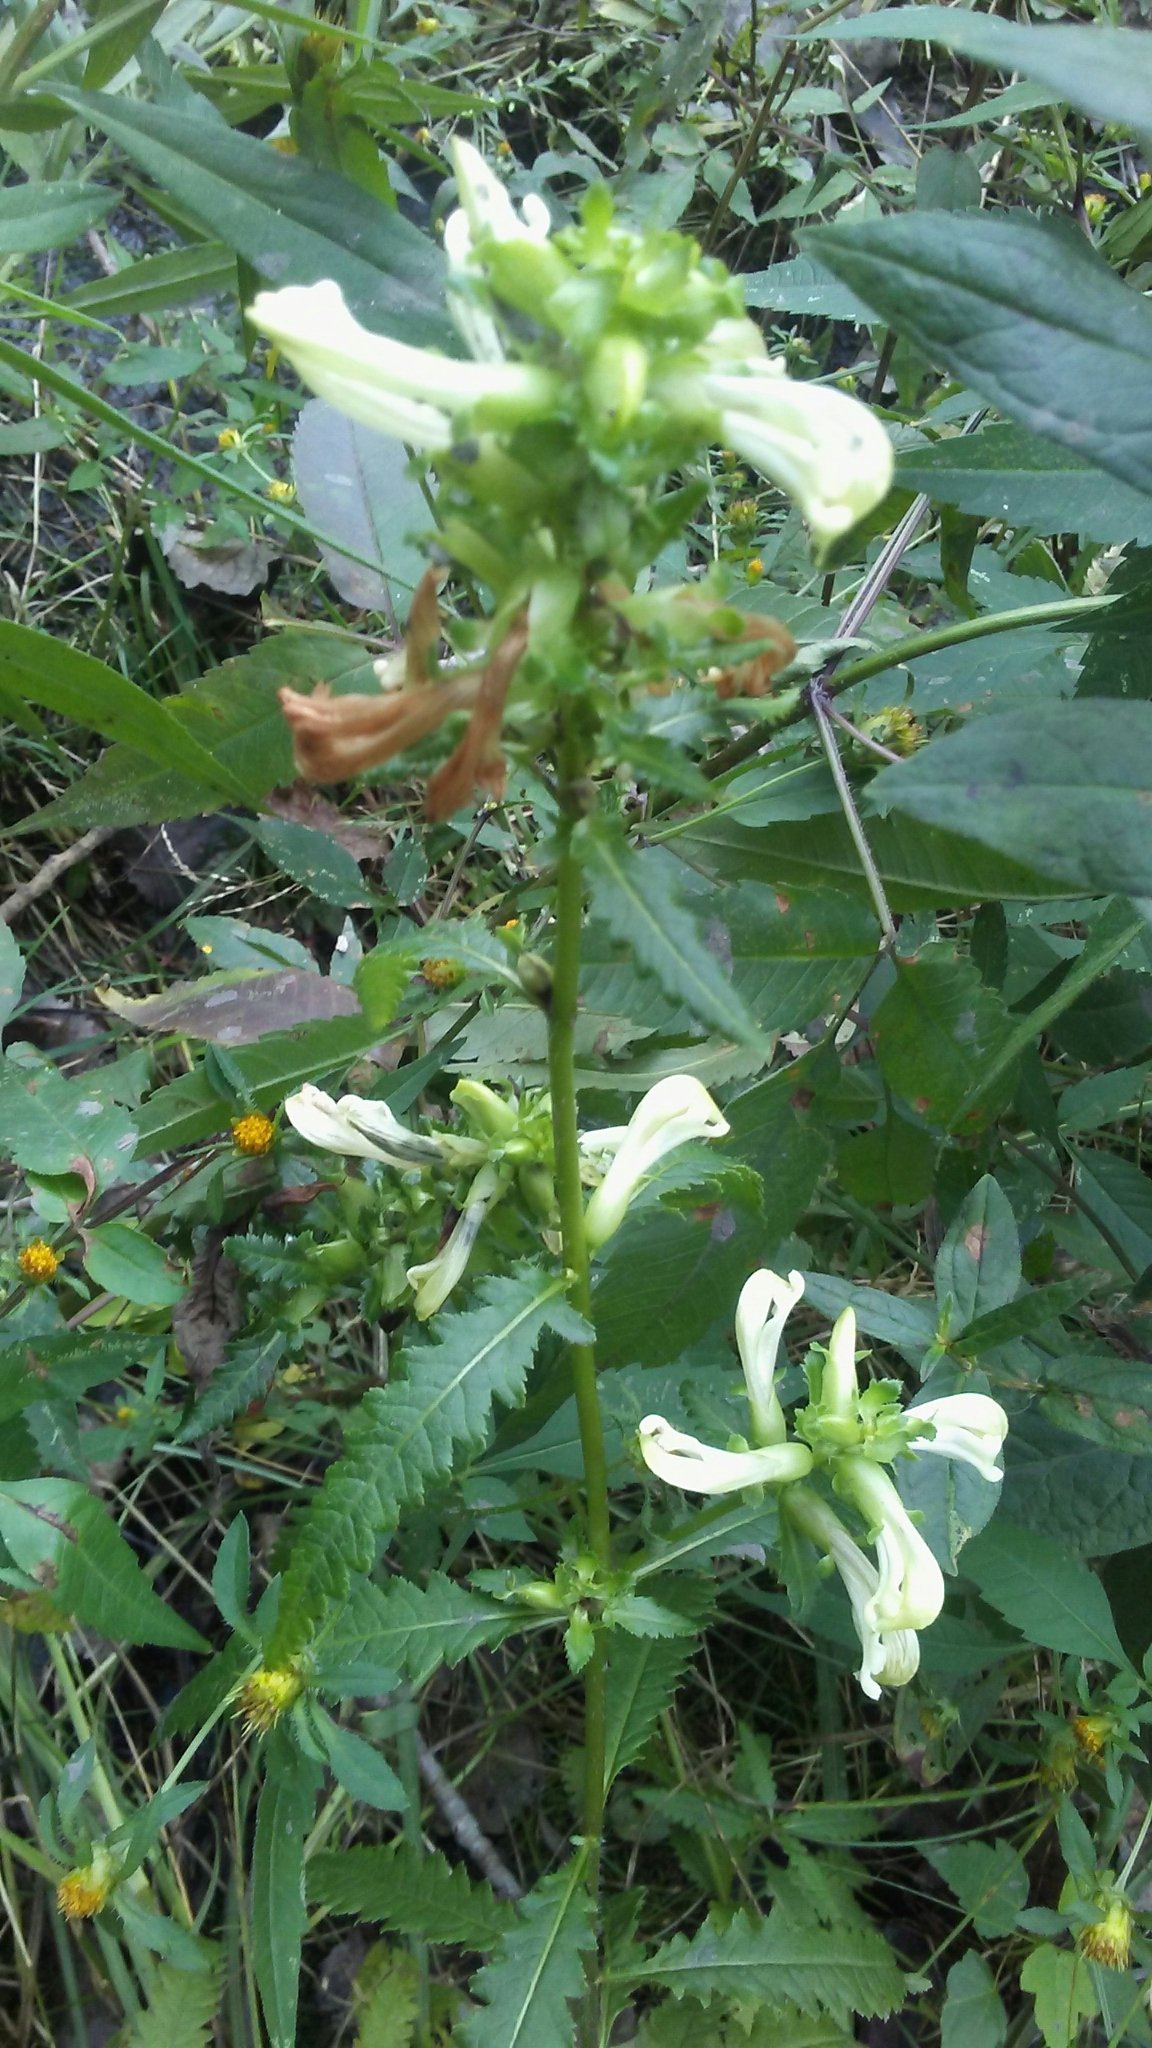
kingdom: Plantae
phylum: Tracheophyta
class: Magnoliopsida
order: Lamiales
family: Orobanchaceae
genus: Pedicularis
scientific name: Pedicularis lanceolata
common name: Swamp lousewort
